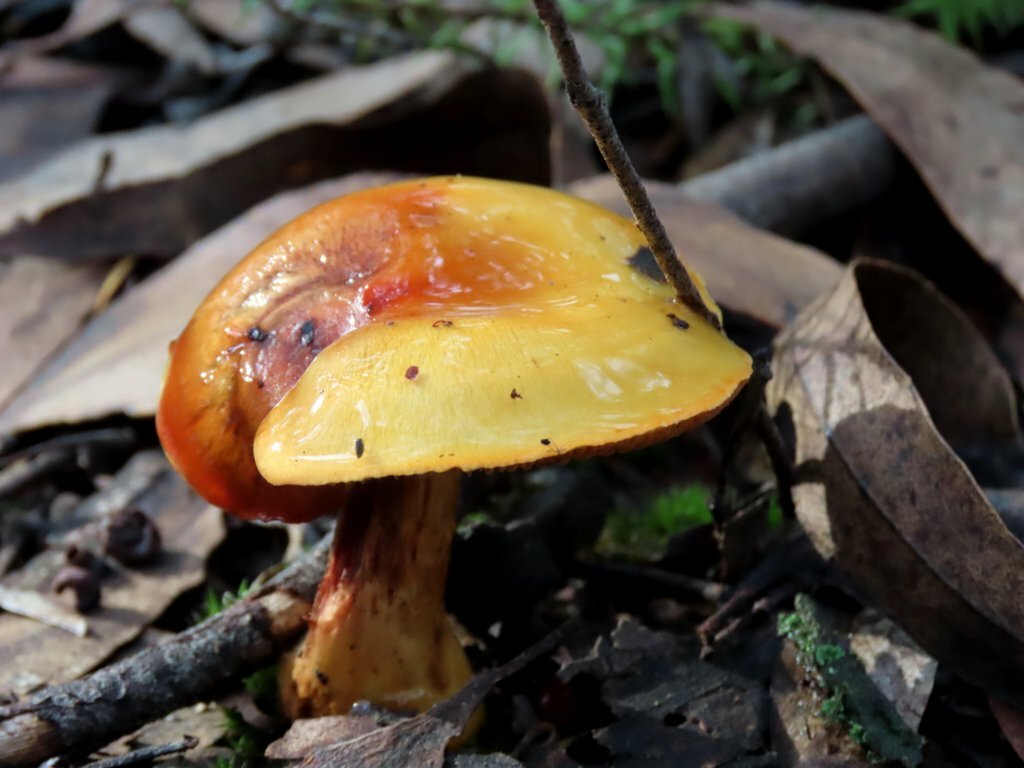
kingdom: Fungi
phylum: Basidiomycota
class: Agaricomycetes
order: Agaricales
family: Cortinariaceae
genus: Cortinarius
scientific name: Cortinarius sinapicolor
